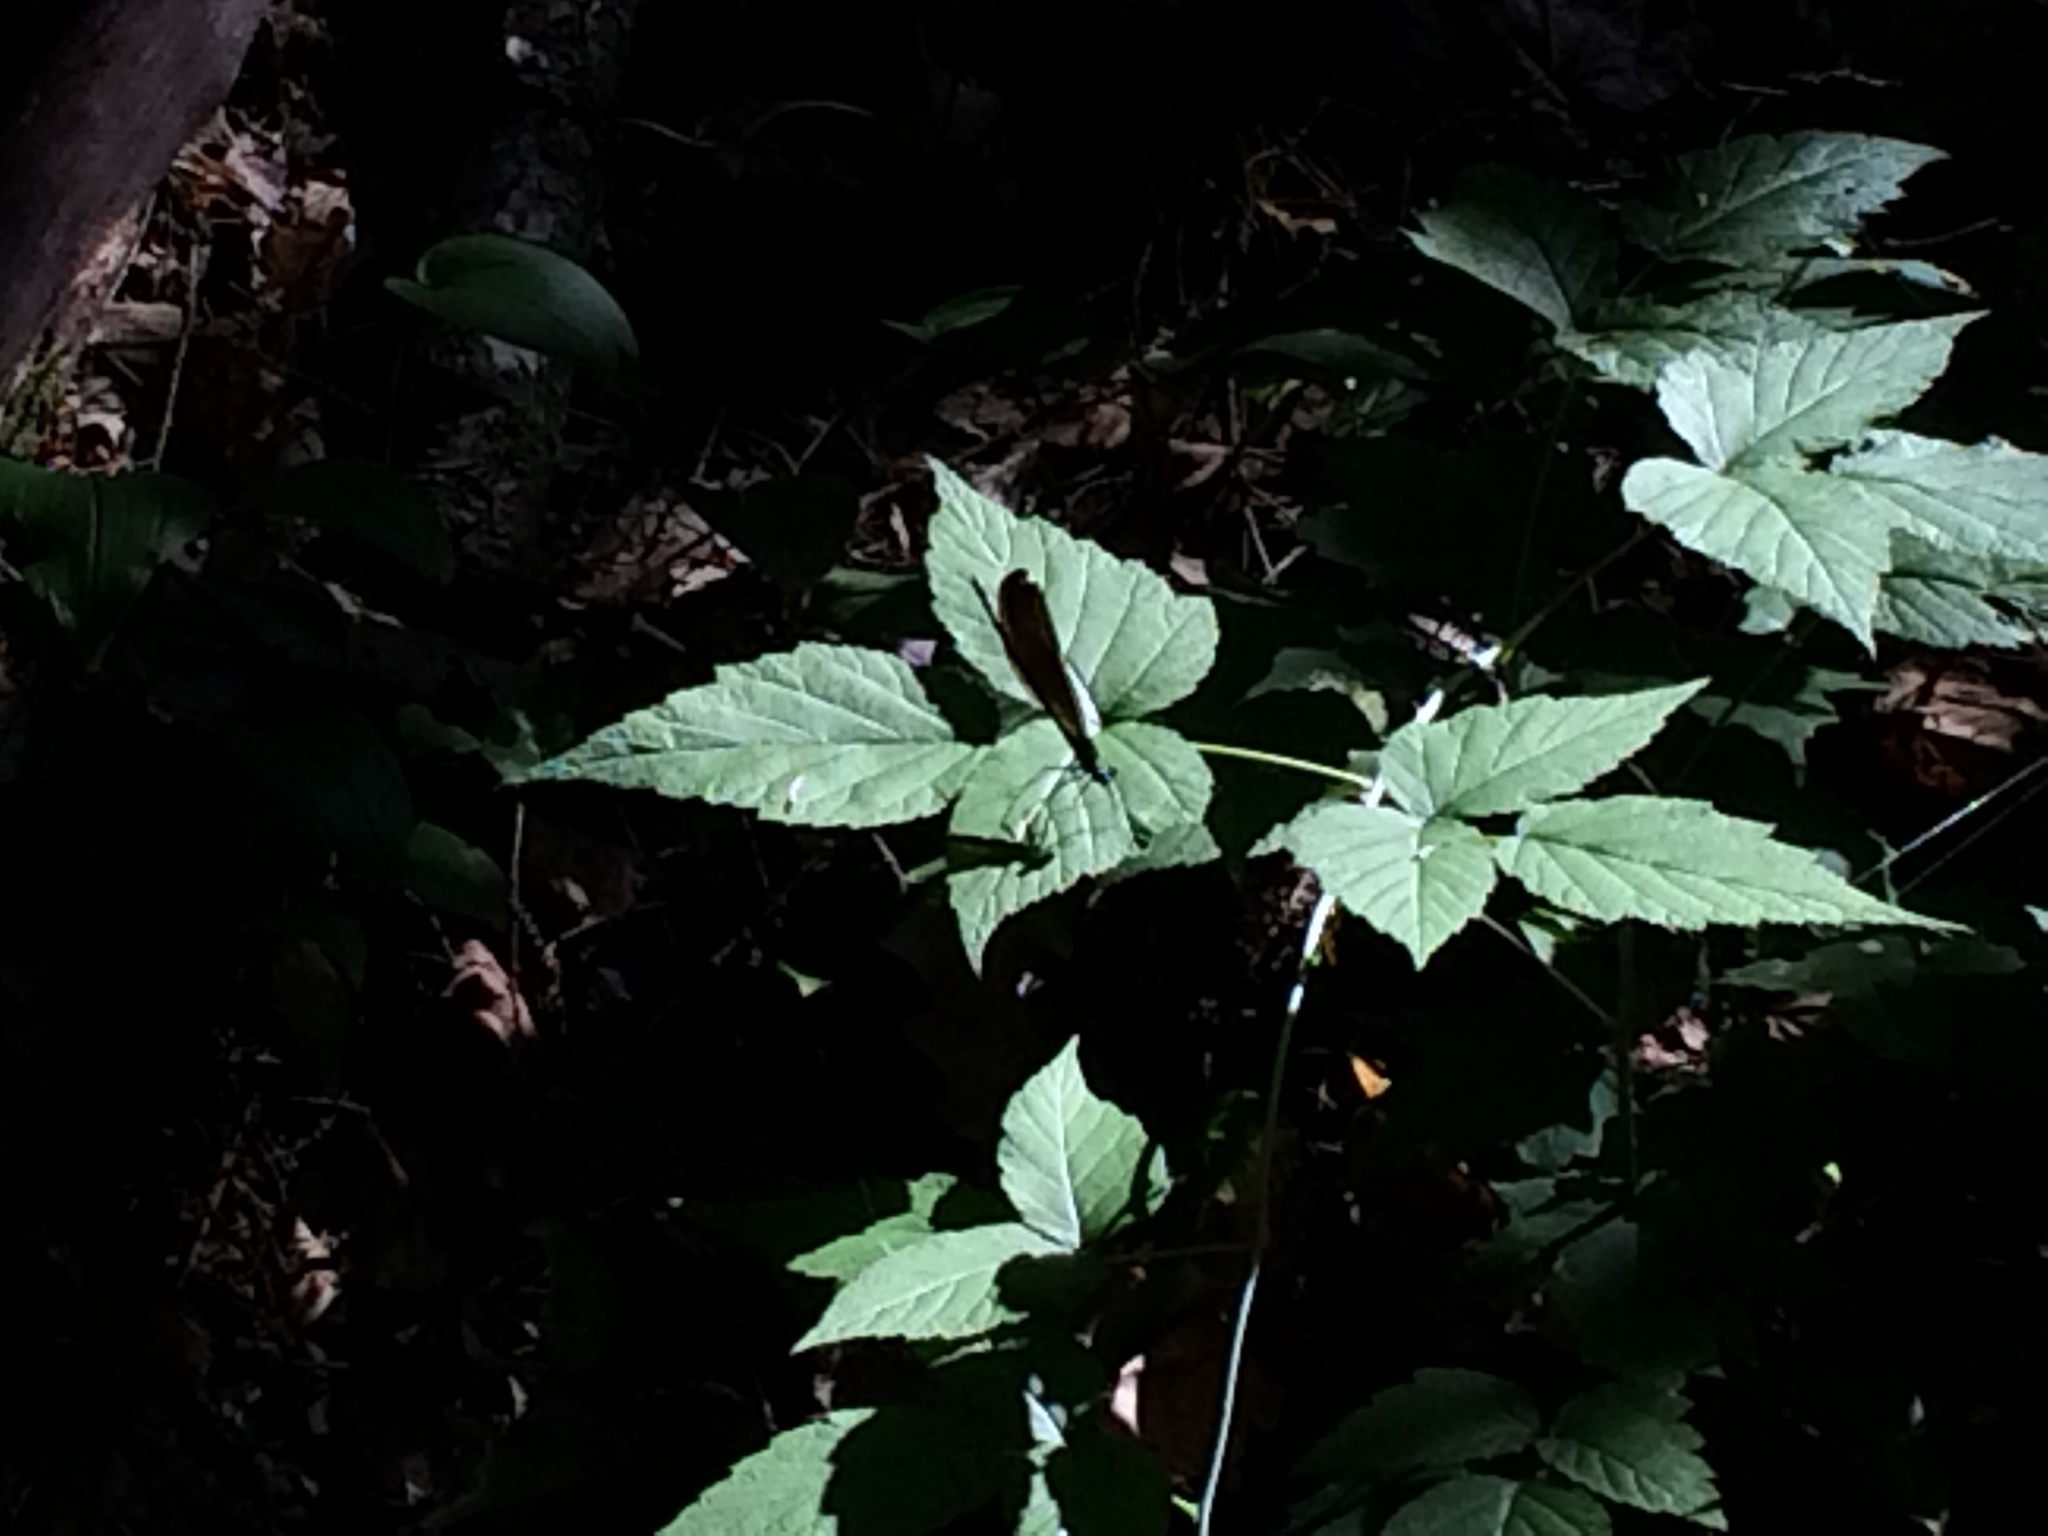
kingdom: Animalia
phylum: Arthropoda
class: Insecta
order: Odonata
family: Calopterygidae
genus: Calopteryx
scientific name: Calopteryx maculata
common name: Ebony jewelwing
